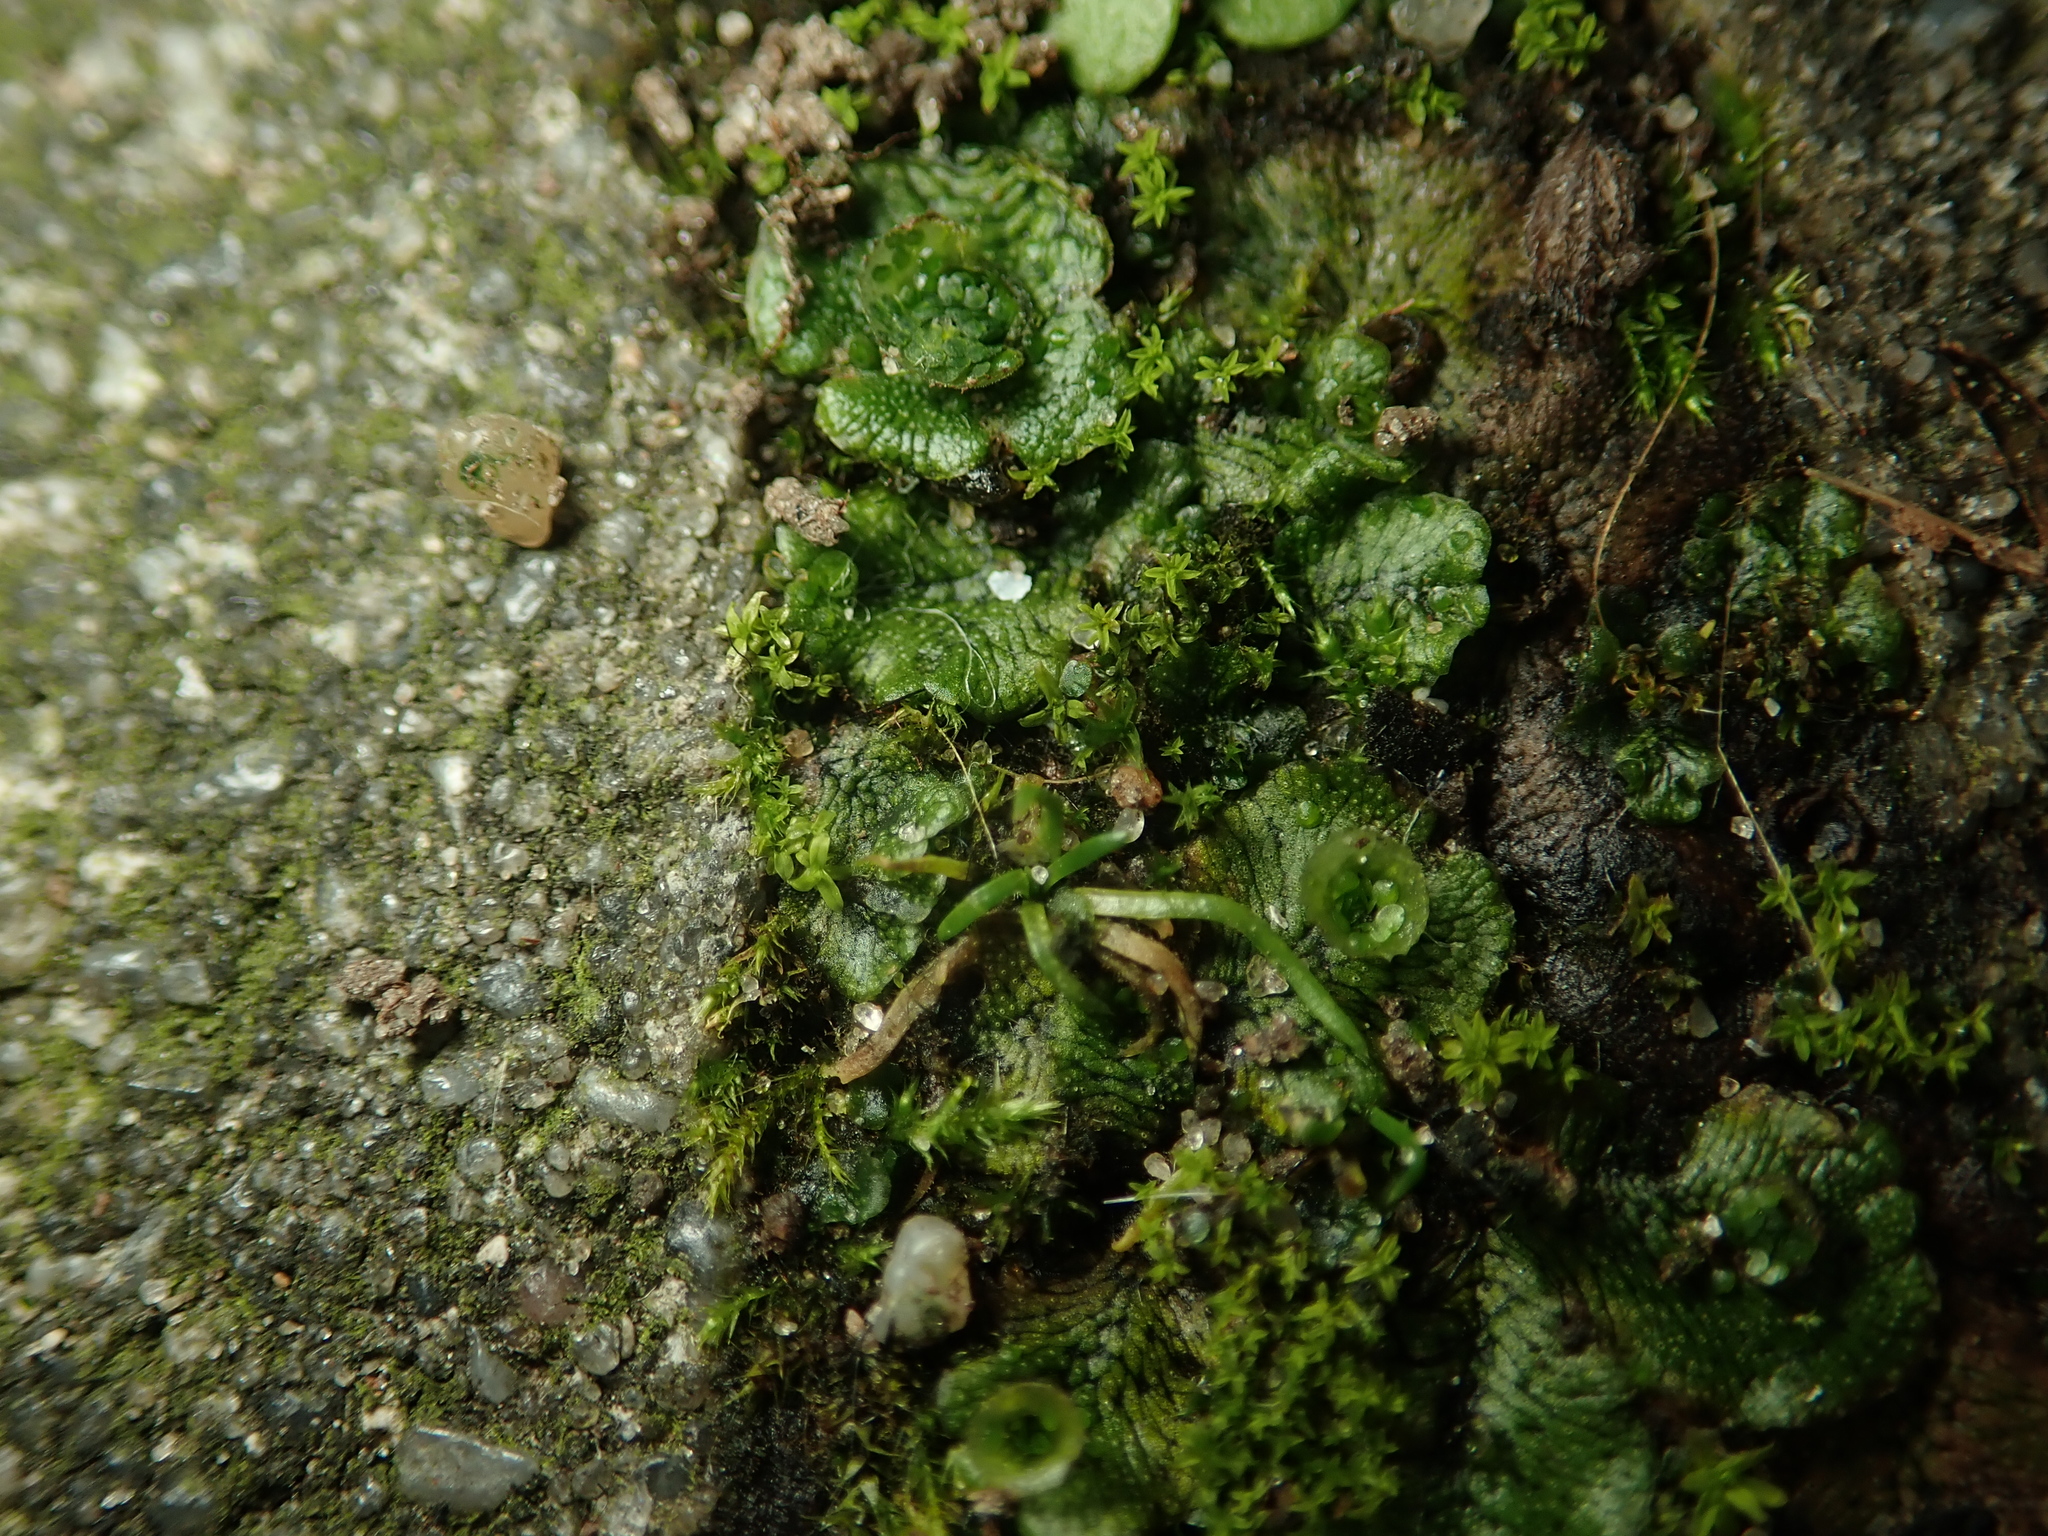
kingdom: Plantae
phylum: Marchantiophyta
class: Marchantiopsida
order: Marchantiales
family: Marchantiaceae
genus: Marchantia
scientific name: Marchantia polymorpha
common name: Common liverwort
